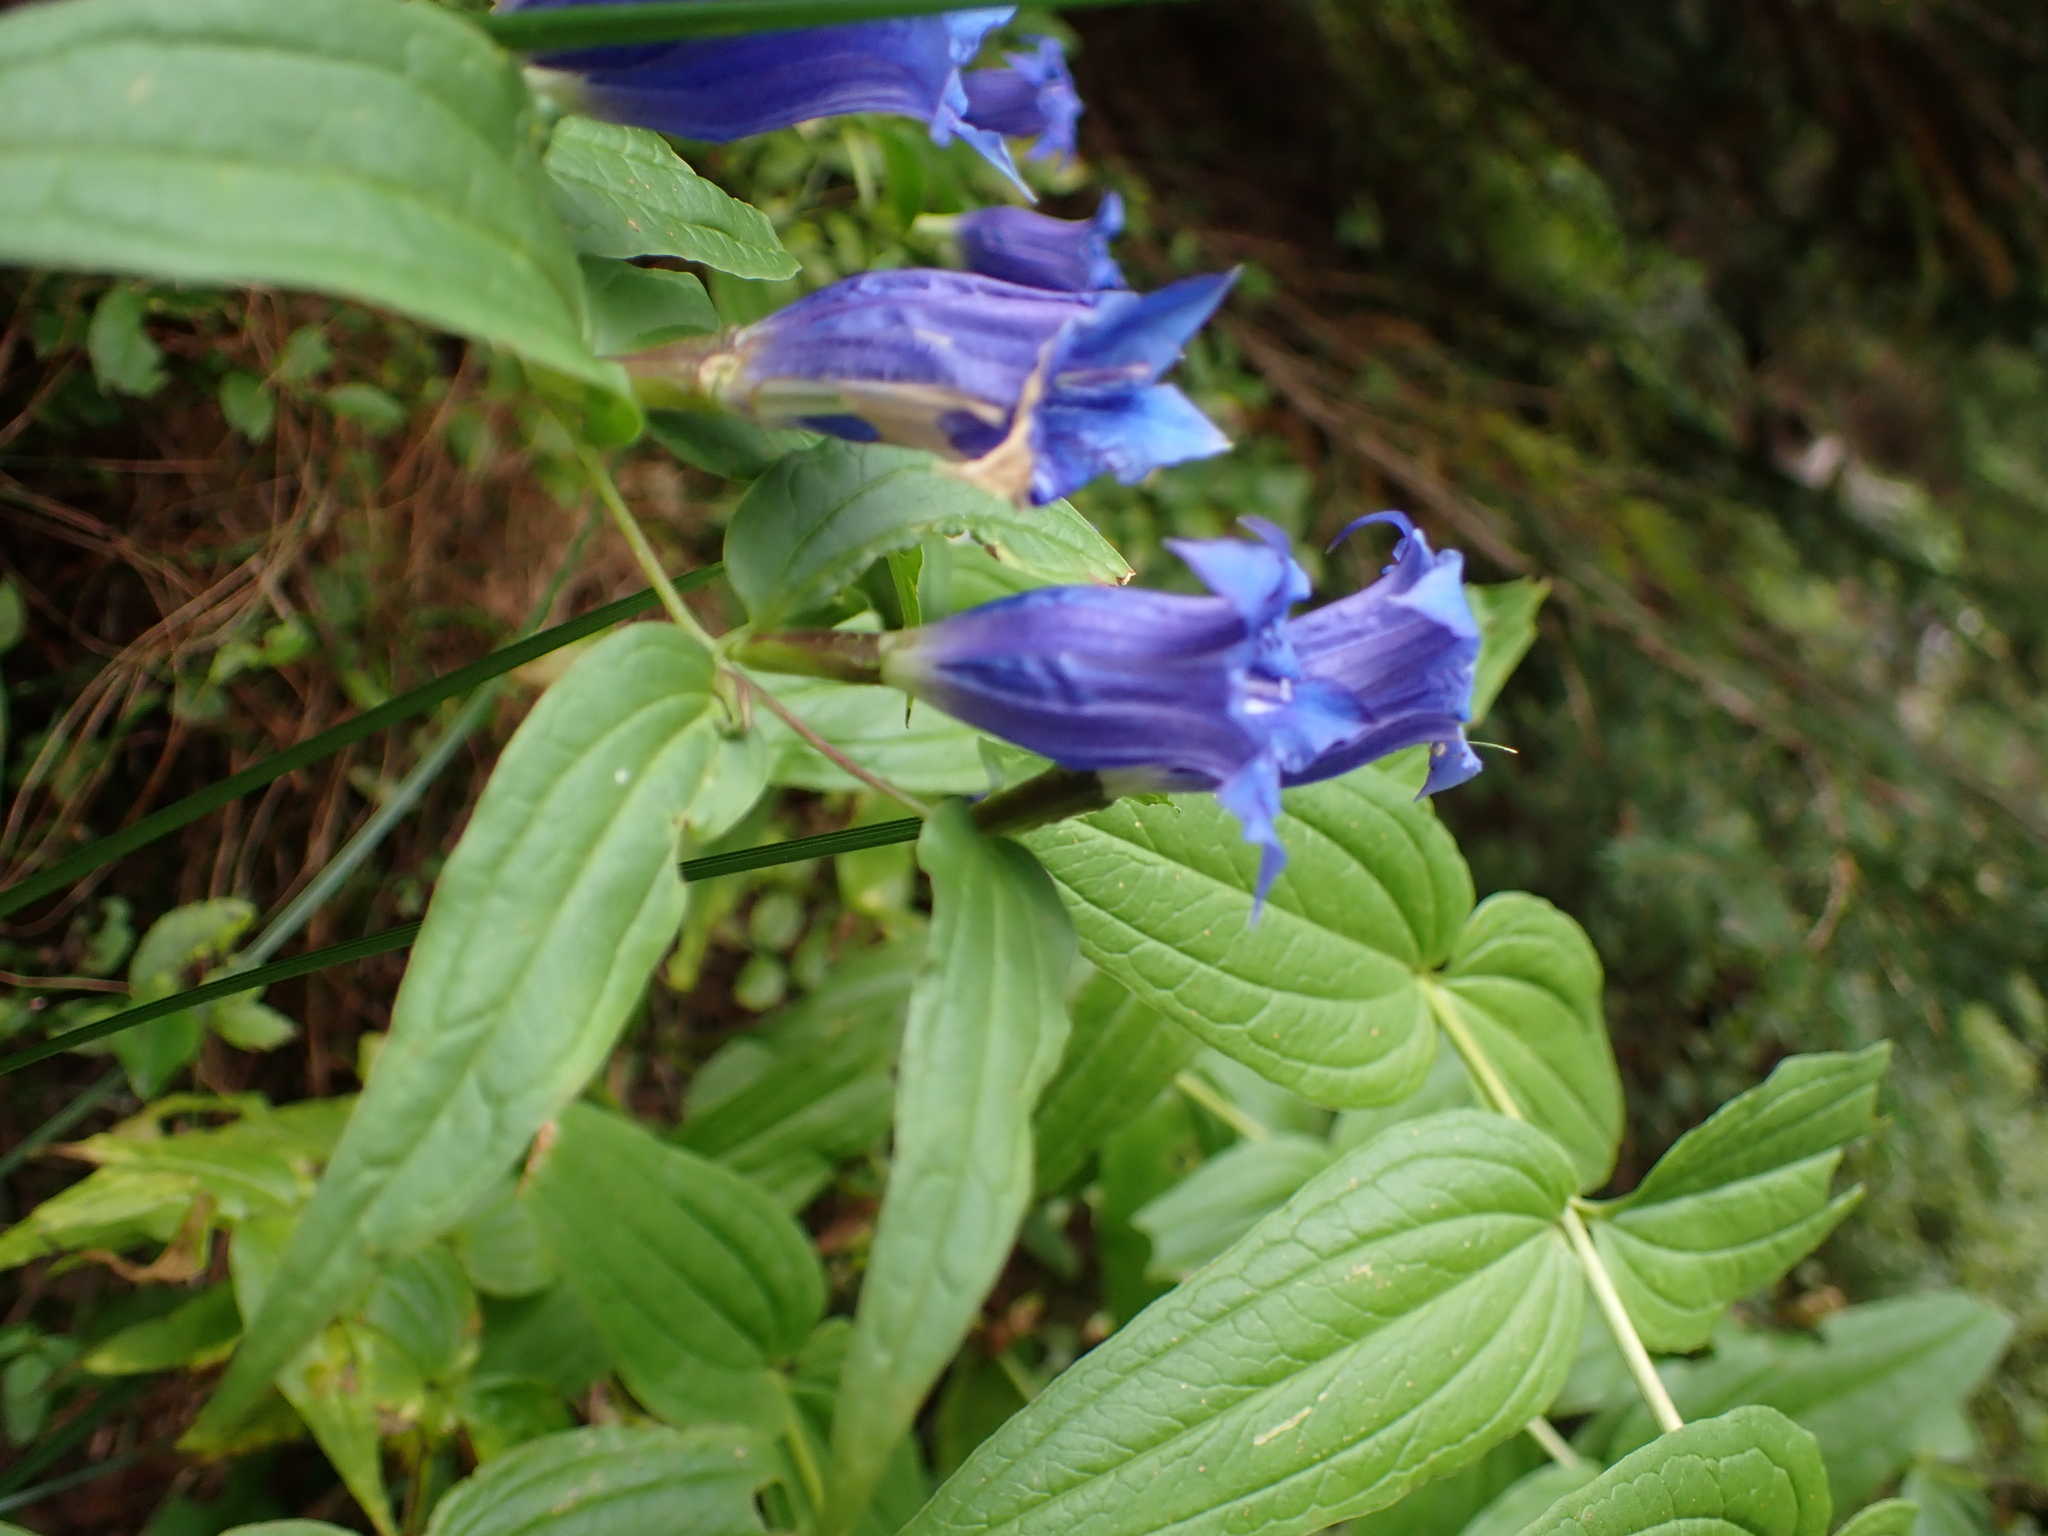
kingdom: Plantae
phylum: Tracheophyta
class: Magnoliopsida
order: Gentianales
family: Gentianaceae
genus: Gentiana
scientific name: Gentiana asclepiadea
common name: Willow gentian
